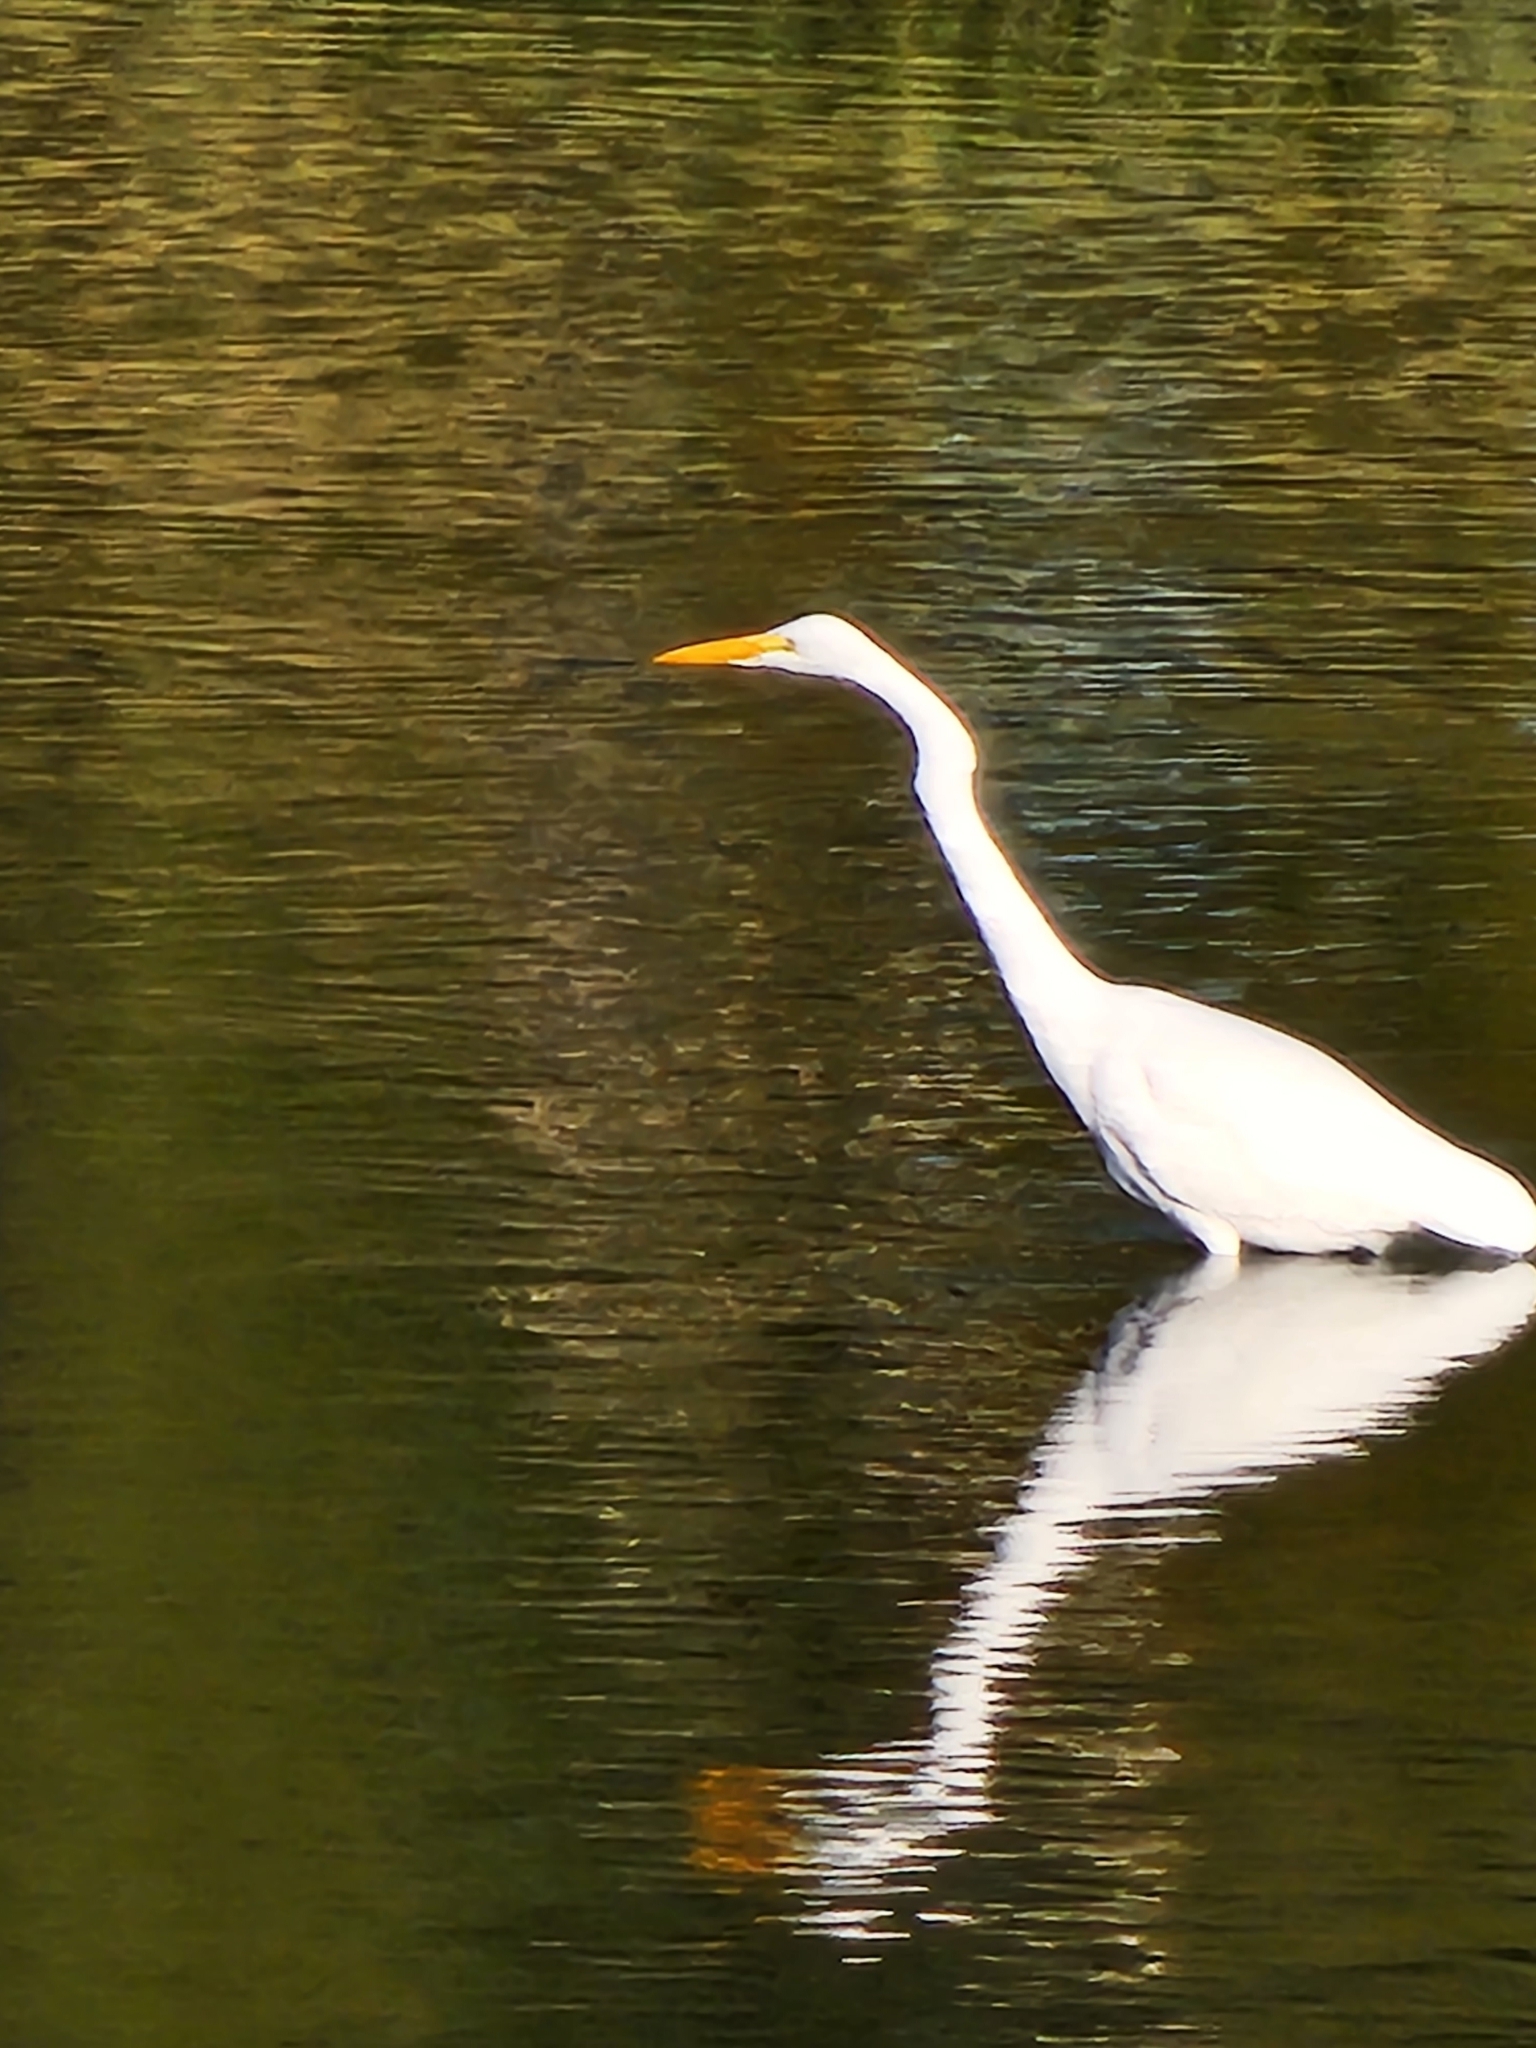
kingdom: Animalia
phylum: Chordata
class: Aves
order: Pelecaniformes
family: Ardeidae
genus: Ardea
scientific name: Ardea alba
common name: Great egret
